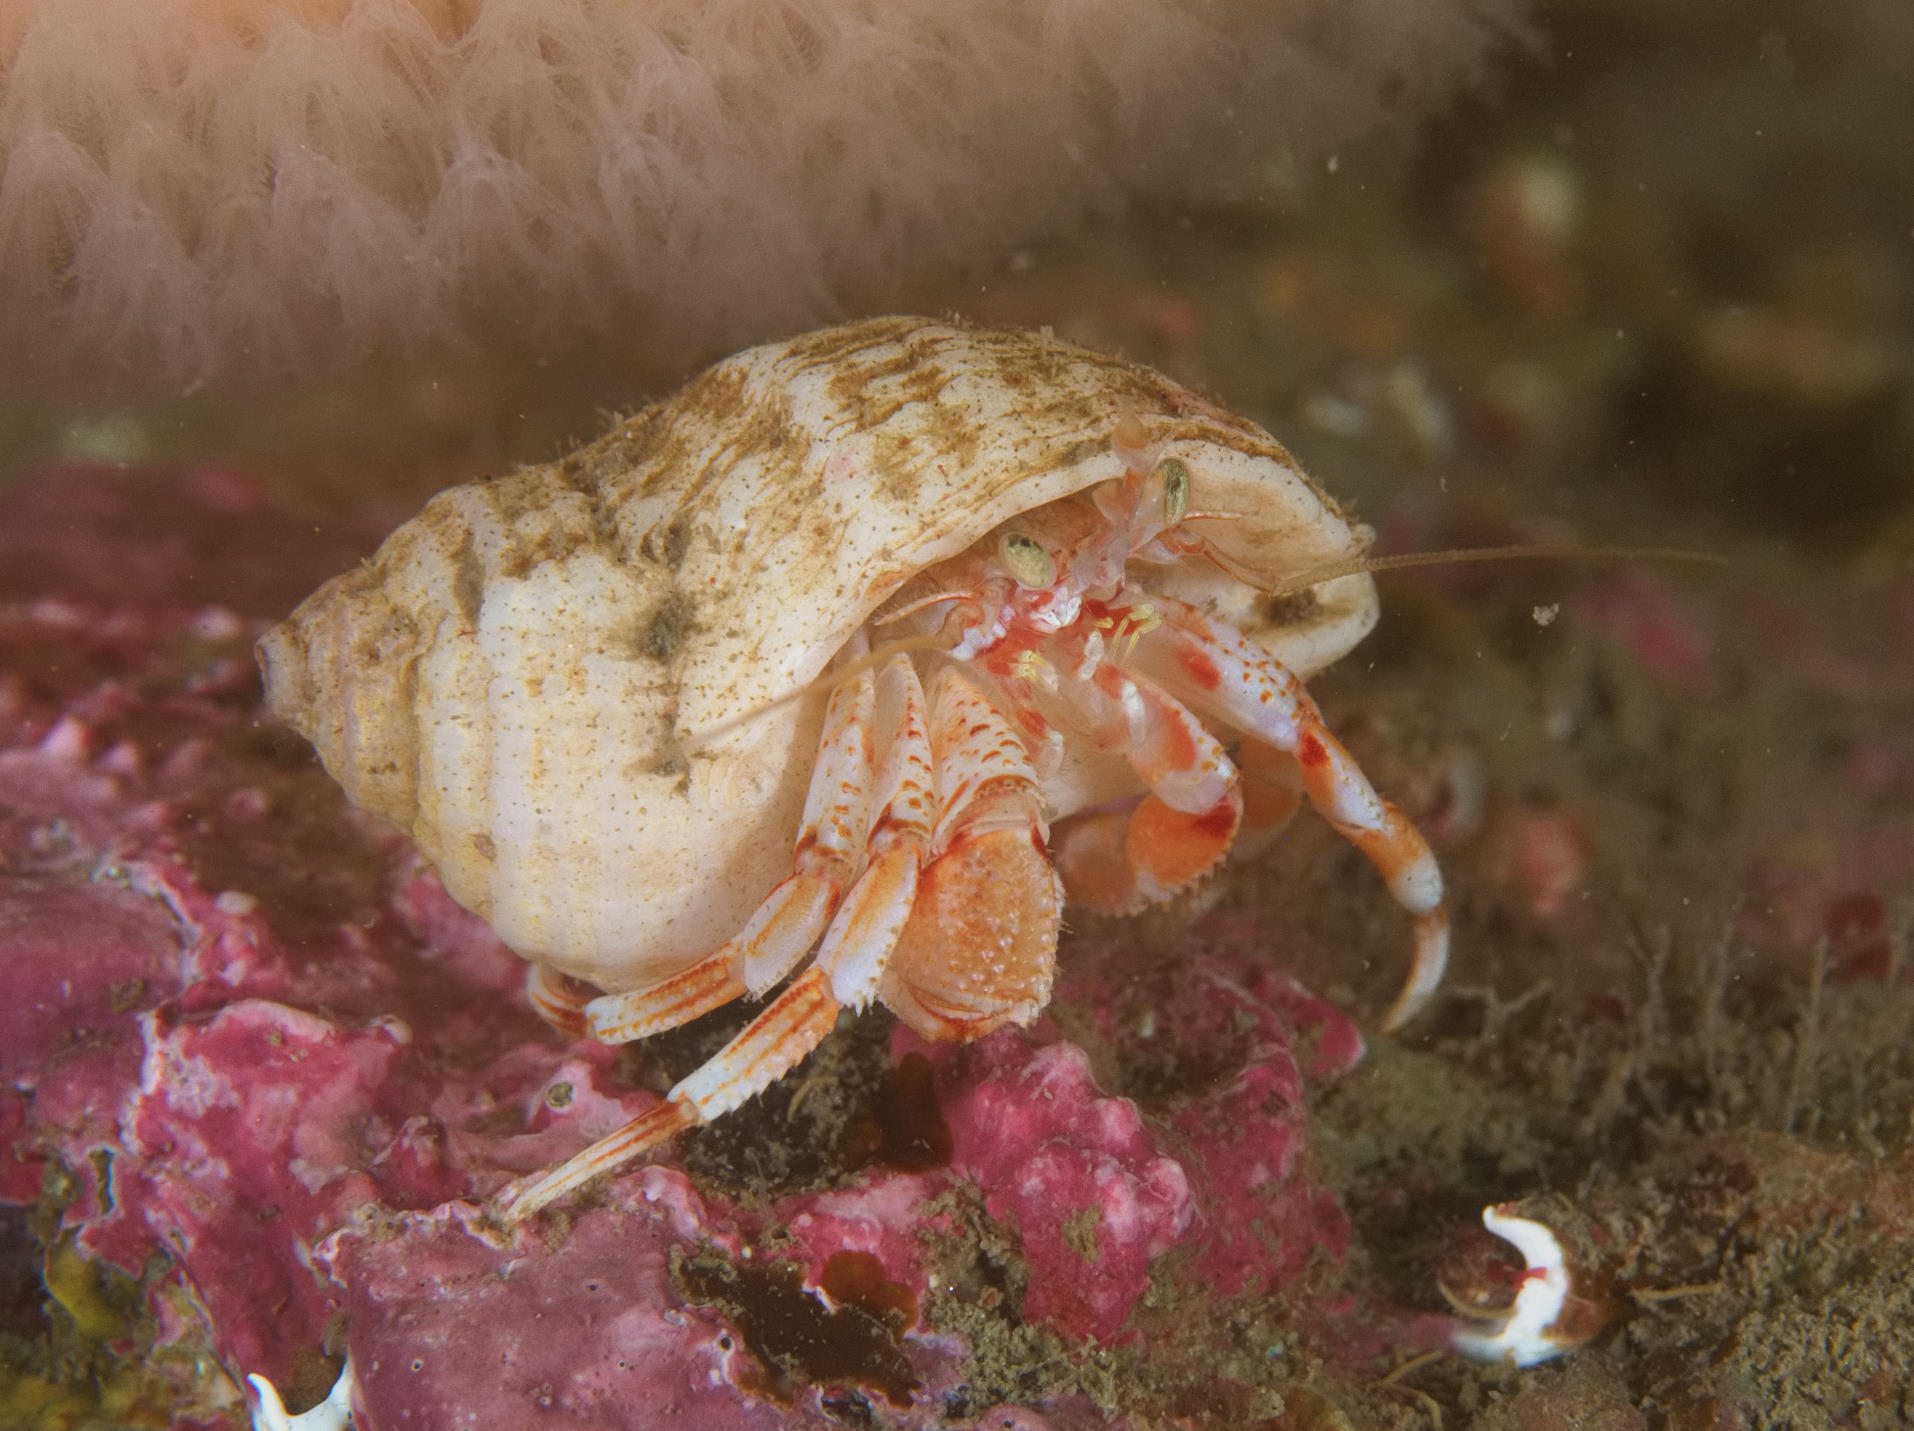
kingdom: Animalia
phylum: Arthropoda
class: Malacostraca
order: Decapoda
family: Paguridae
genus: Pagurus
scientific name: Pagurus bernhardus
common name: Hermit crab
